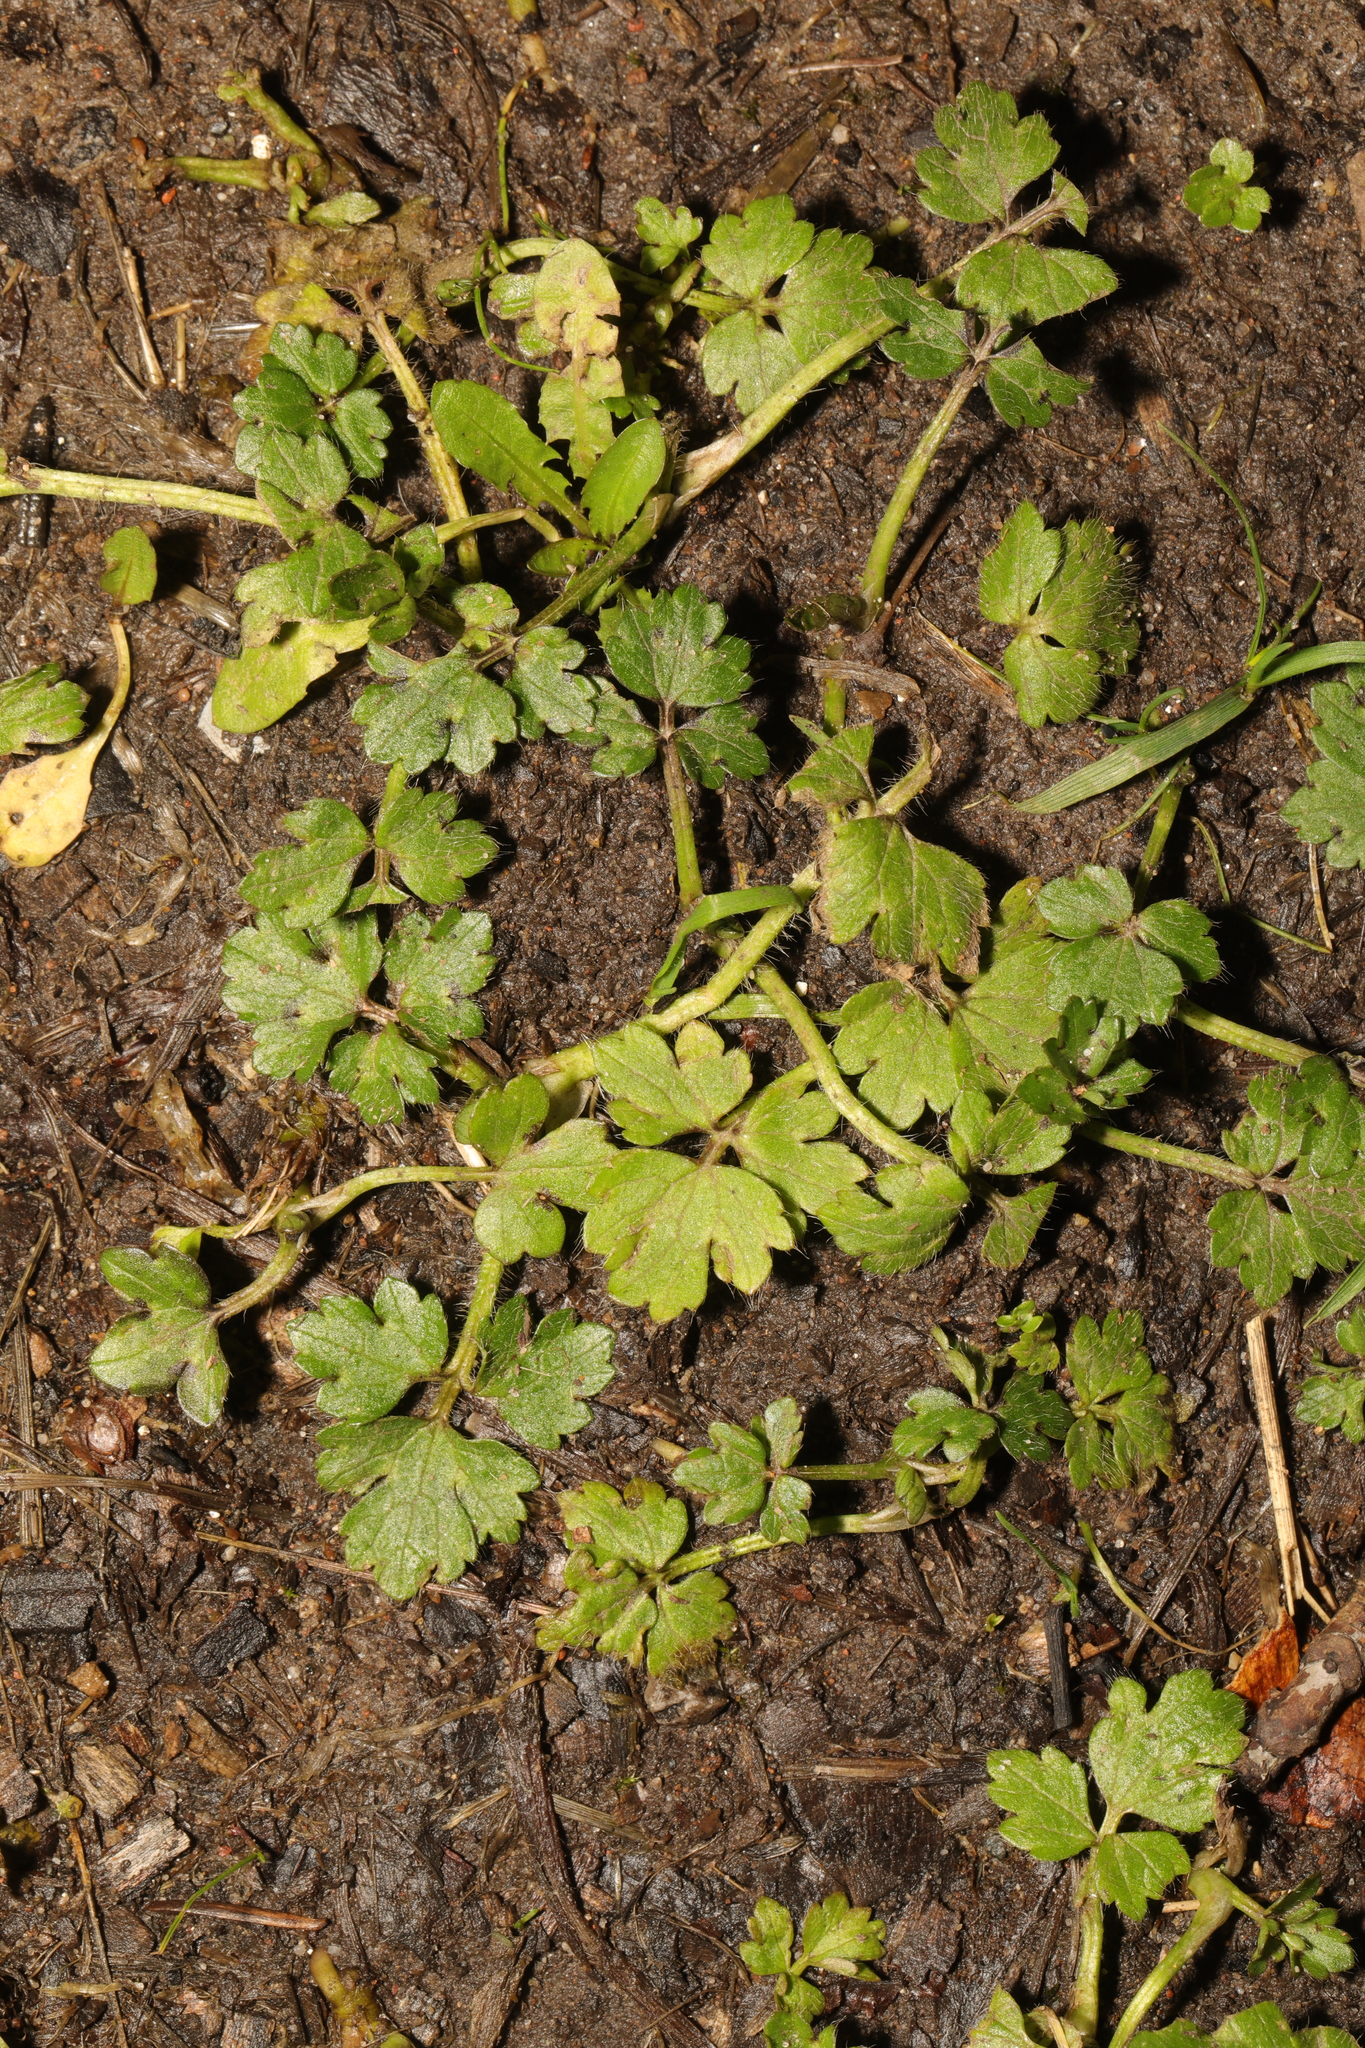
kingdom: Plantae
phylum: Tracheophyta
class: Magnoliopsida
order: Ranunculales
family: Ranunculaceae
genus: Ranunculus
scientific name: Ranunculus repens
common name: Creeping buttercup
